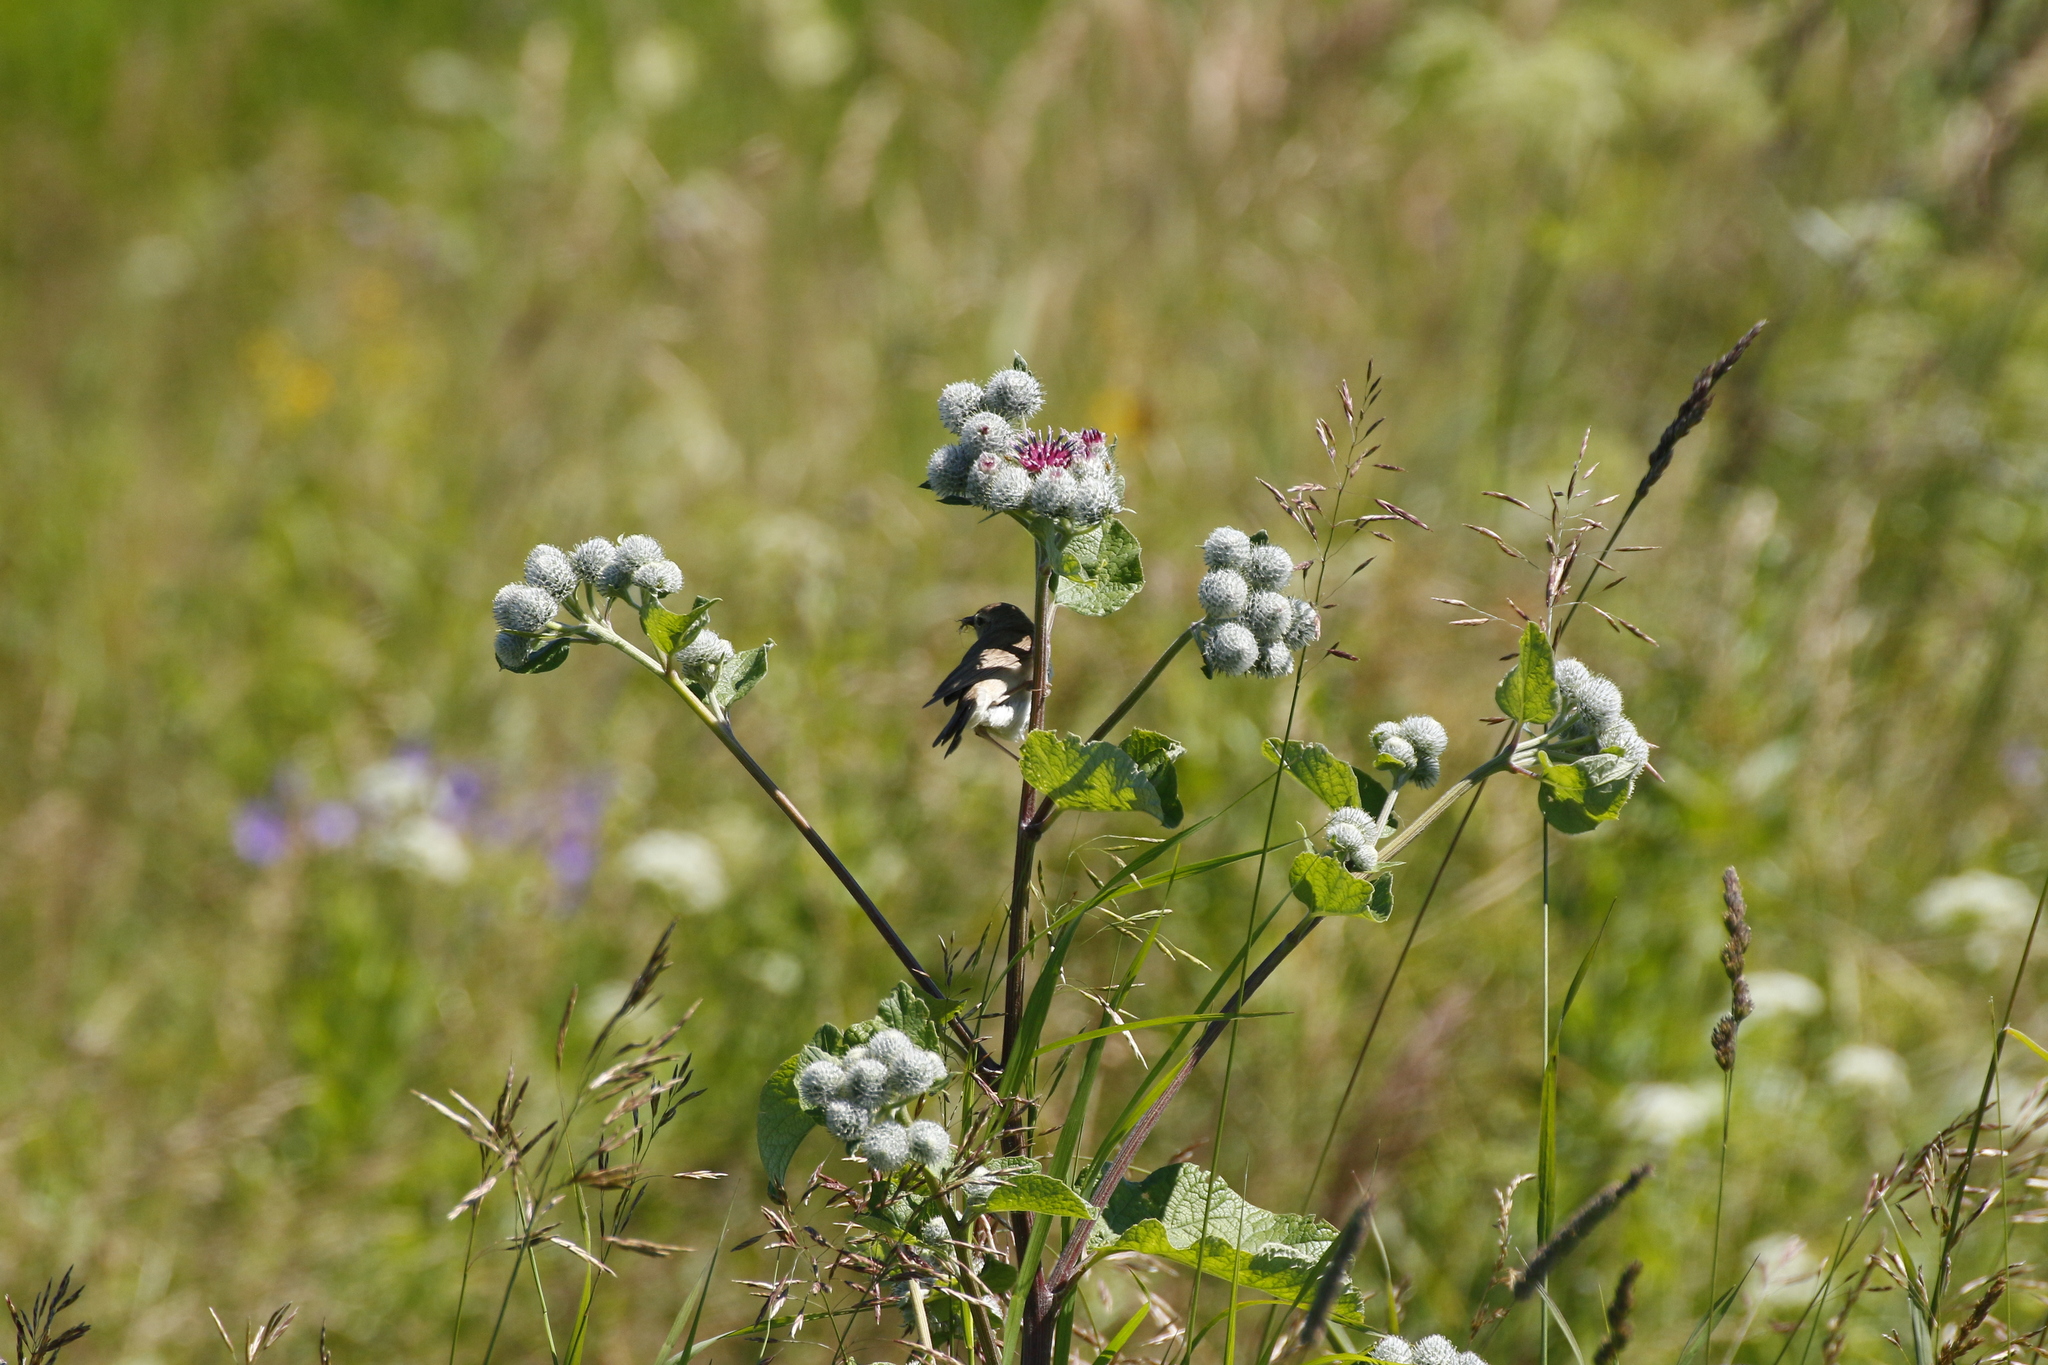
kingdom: Plantae
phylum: Tracheophyta
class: Magnoliopsida
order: Asterales
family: Asteraceae
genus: Arctium
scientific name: Arctium tomentosum
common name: Woolly burdock
